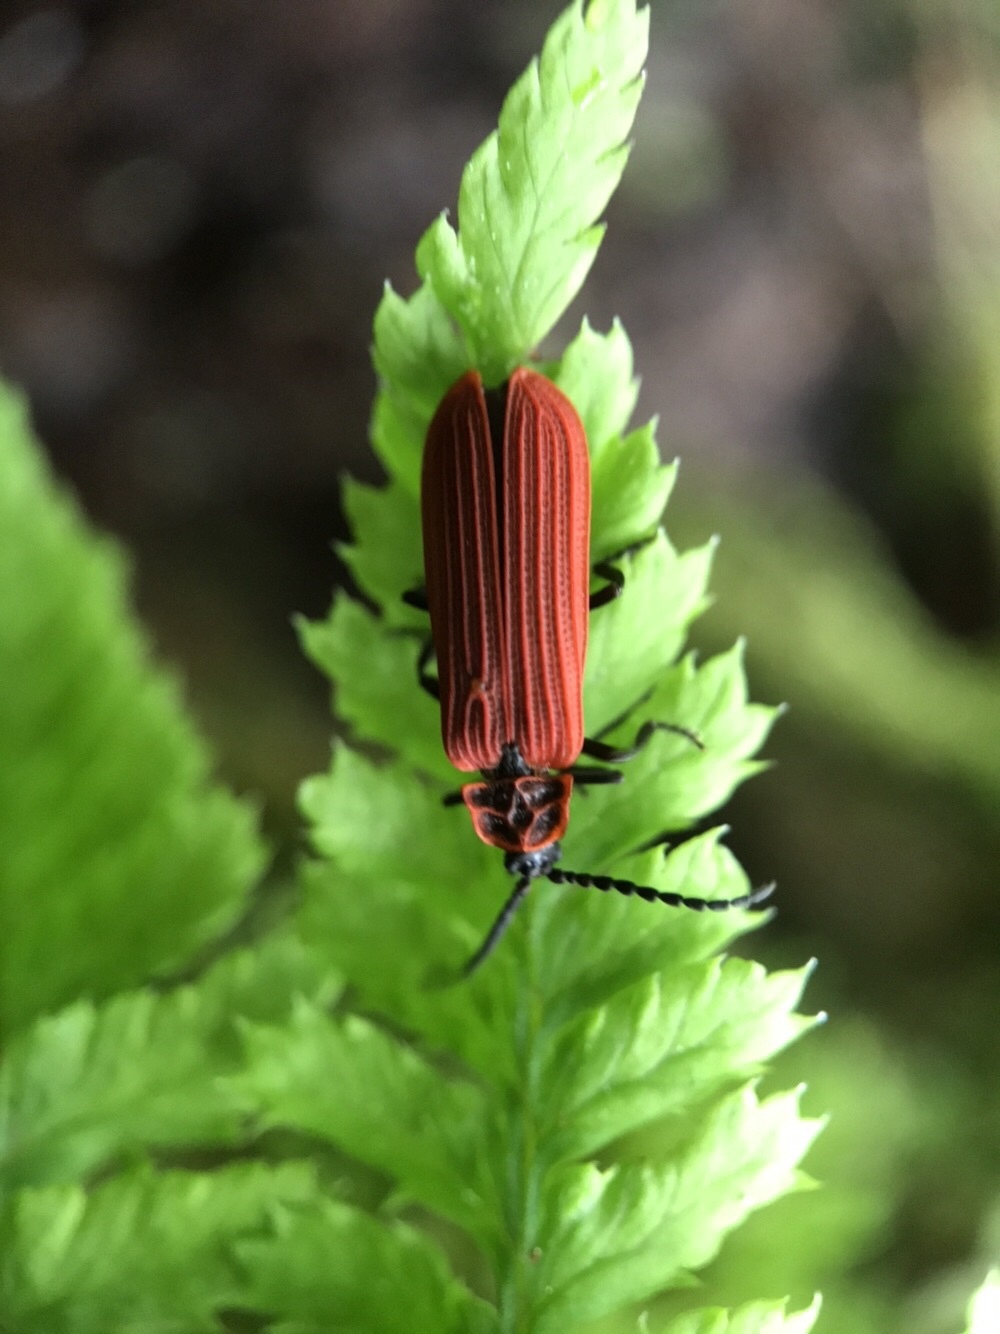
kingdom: Animalia
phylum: Arthropoda
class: Insecta
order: Coleoptera
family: Lycidae
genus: Dictyoptera
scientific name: Dictyoptera aurora
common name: Golden net-winged beetle
